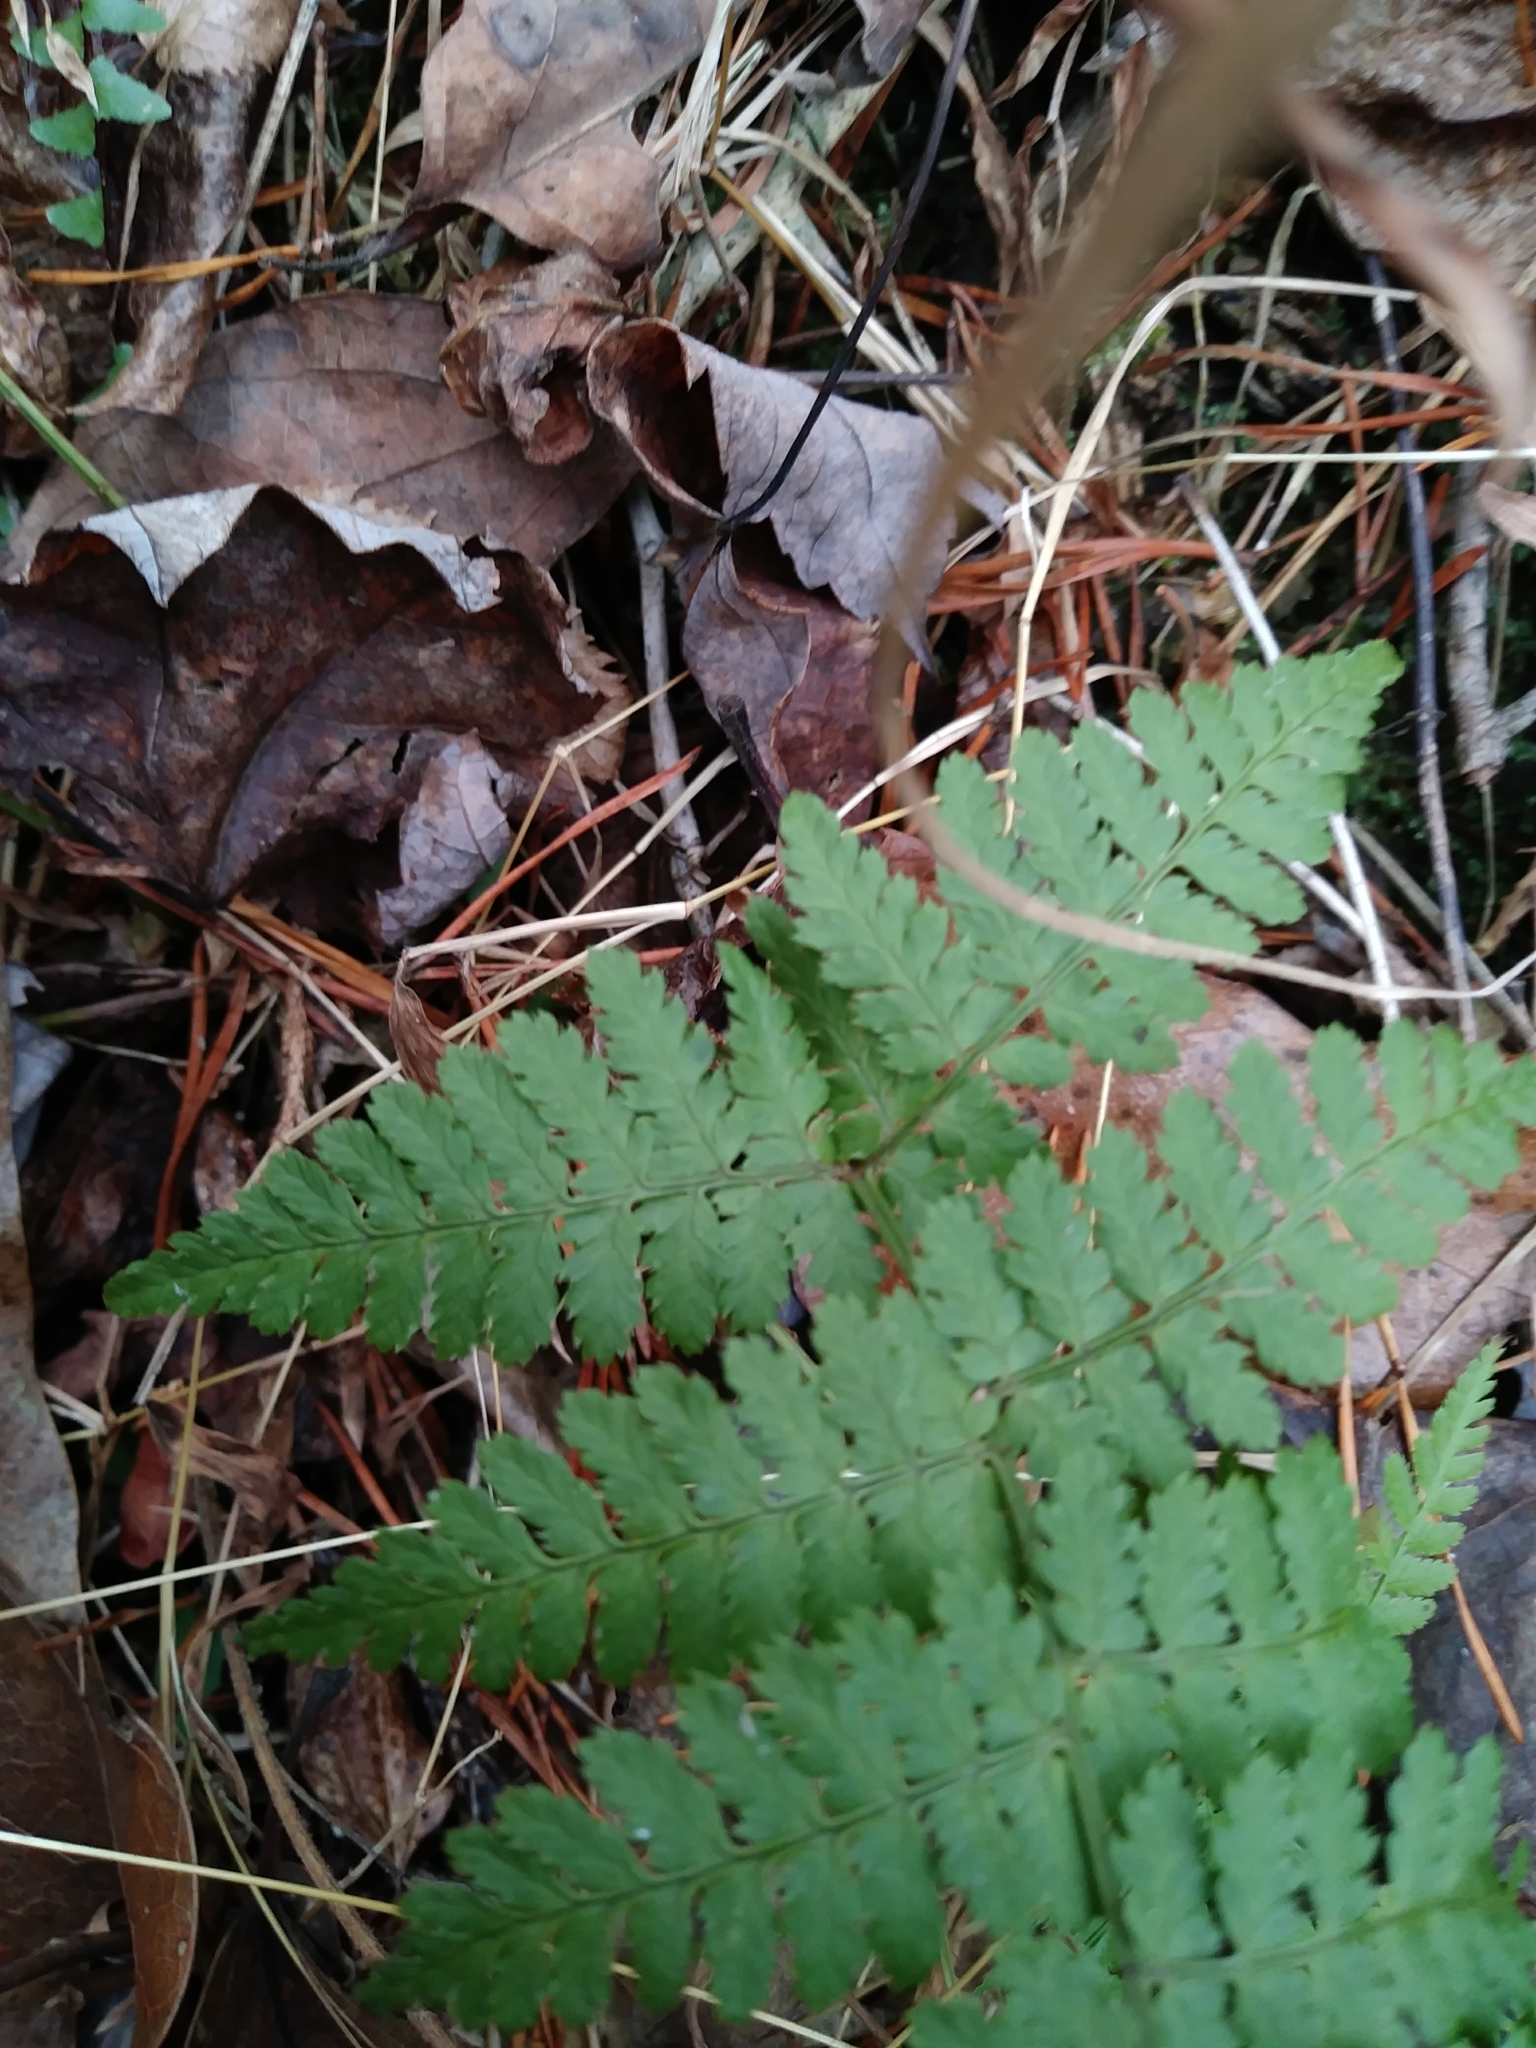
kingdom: Plantae
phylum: Tracheophyta
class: Polypodiopsida
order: Polypodiales
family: Dryopteridaceae
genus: Dryopteris
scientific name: Dryopteris intermedia
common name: Evergreen wood fern
